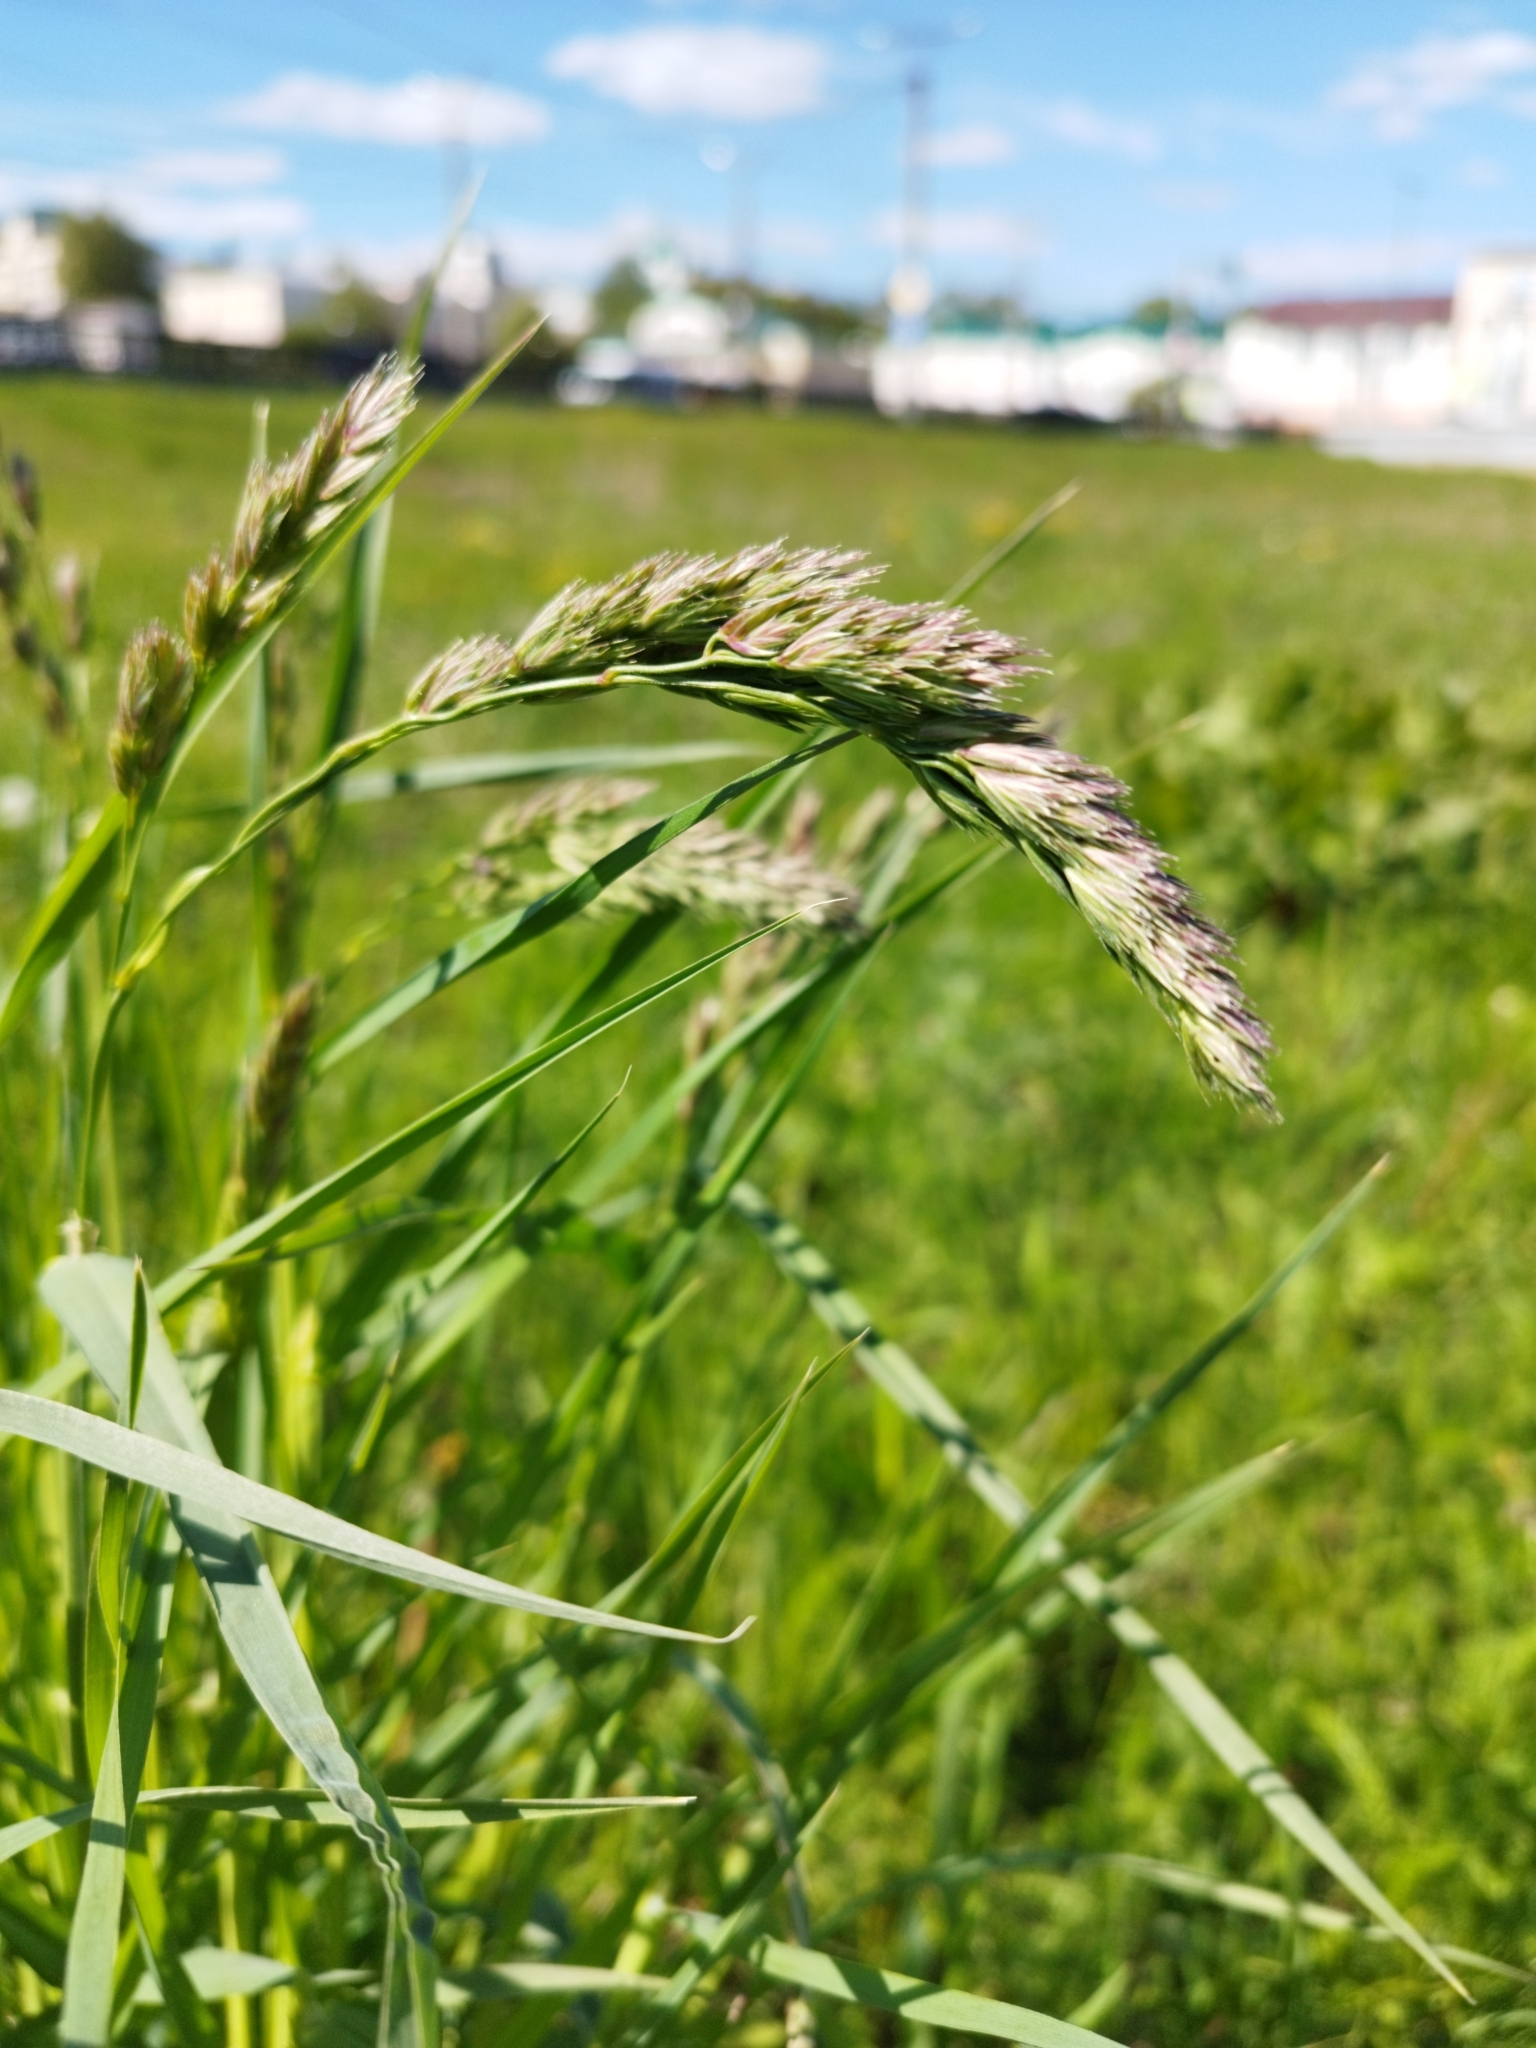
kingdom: Plantae
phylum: Tracheophyta
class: Liliopsida
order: Poales
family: Poaceae
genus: Dactylis
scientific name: Dactylis glomerata
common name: Orchardgrass
